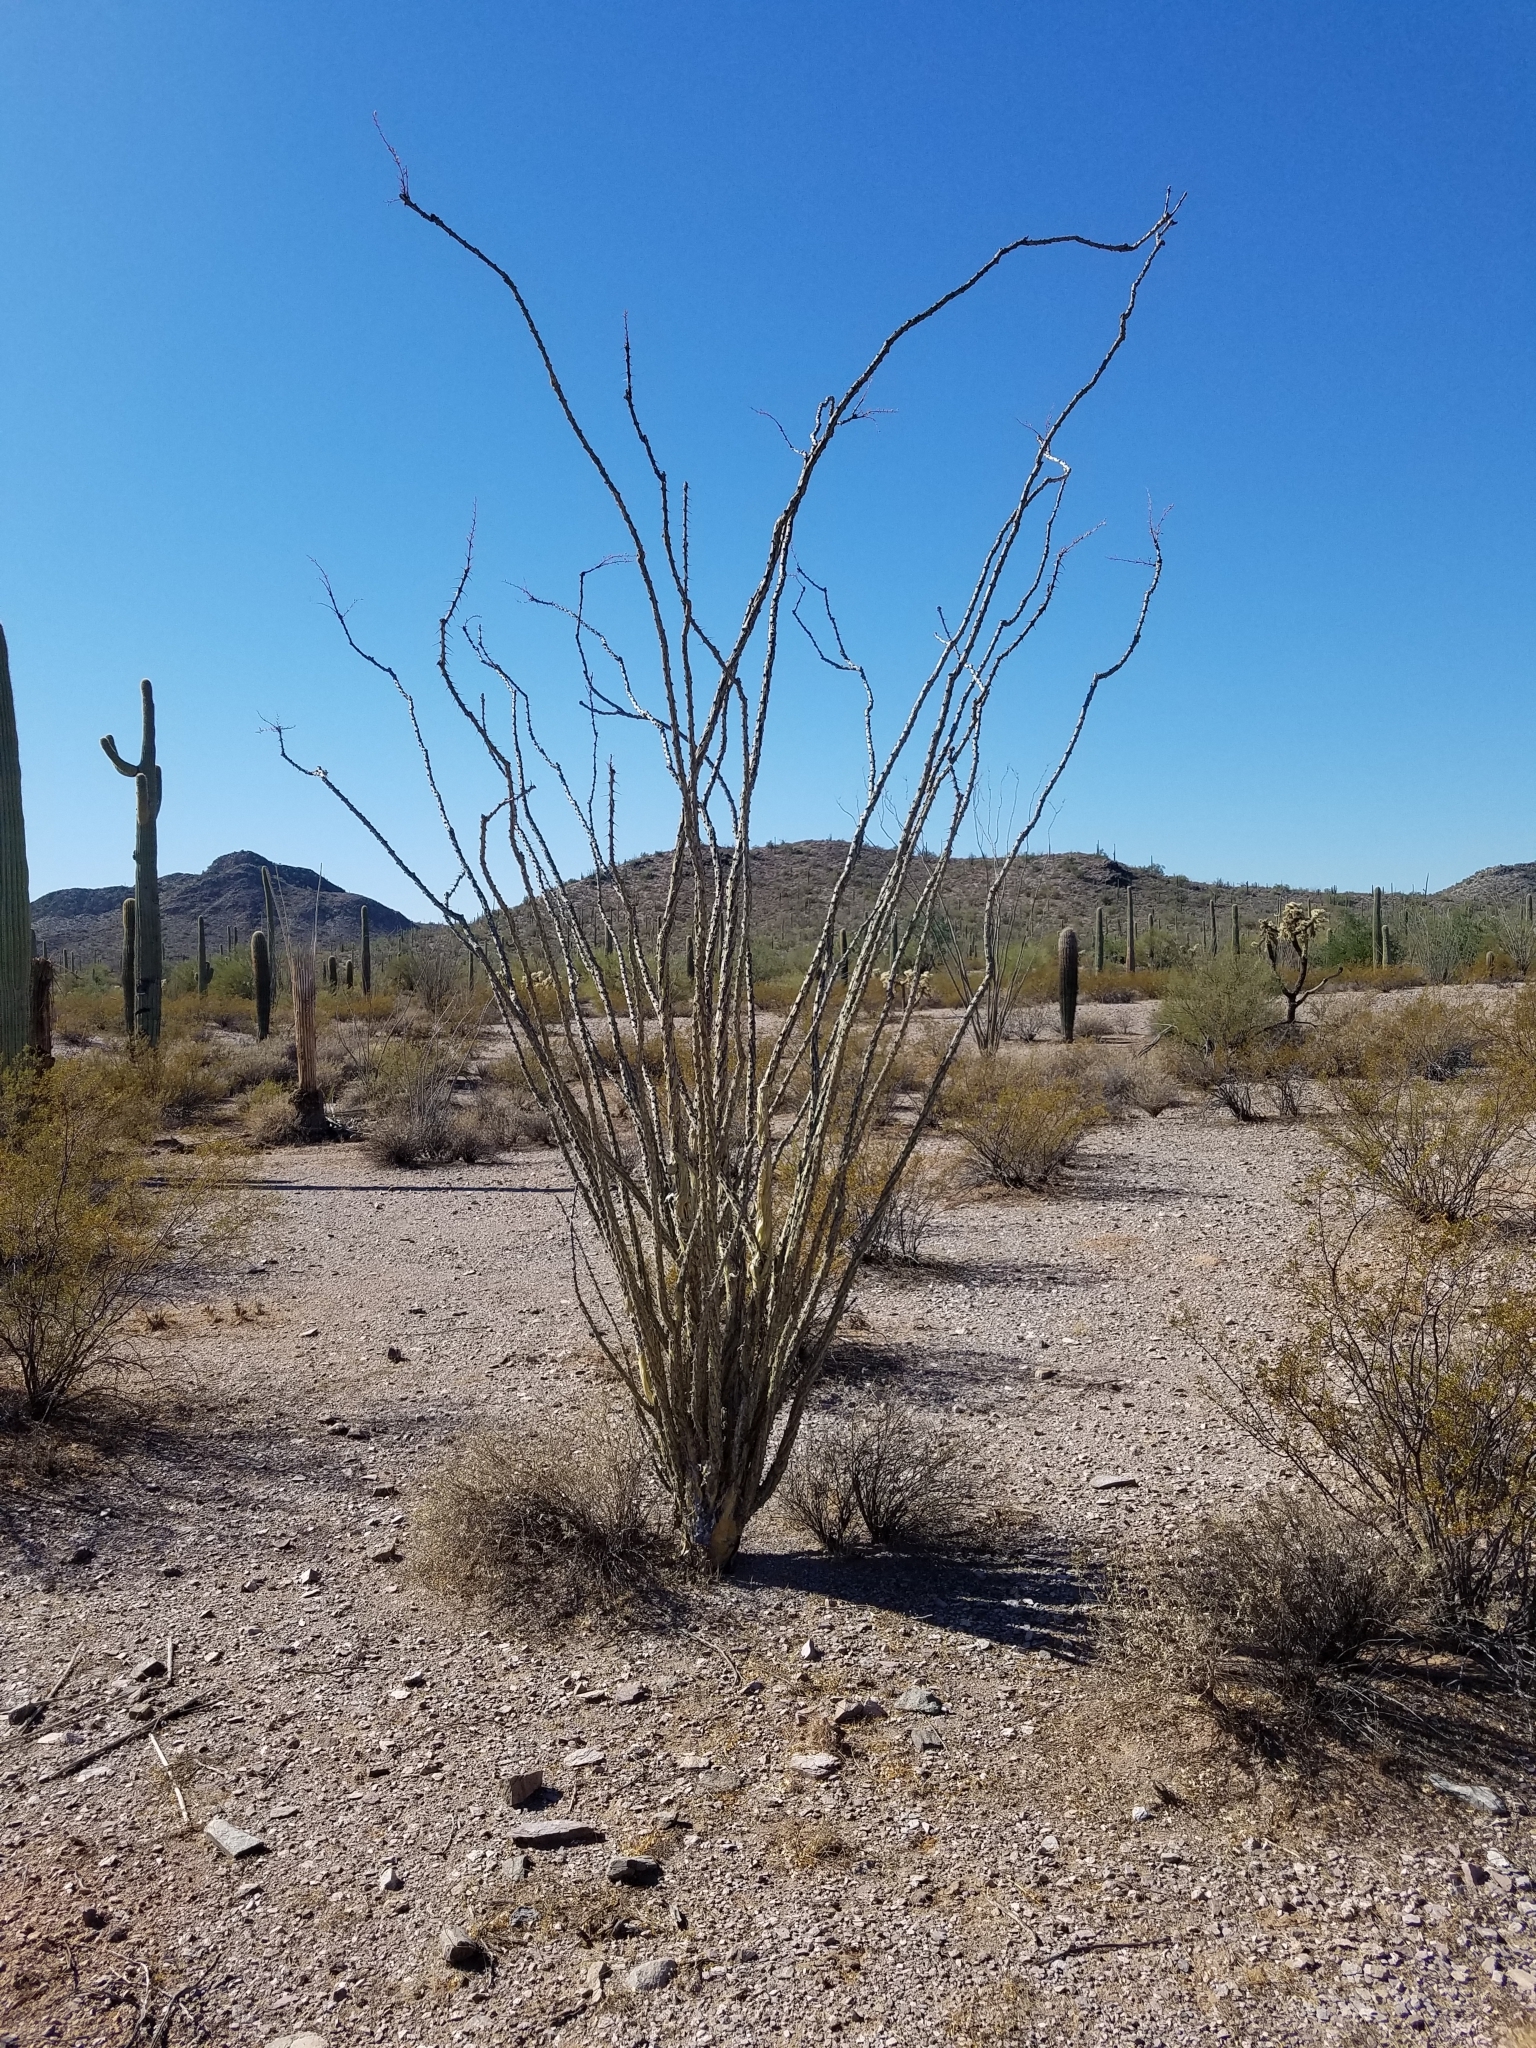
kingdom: Plantae
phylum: Tracheophyta
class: Magnoliopsida
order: Ericales
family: Fouquieriaceae
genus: Fouquieria
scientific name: Fouquieria splendens
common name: Vine-cactus
